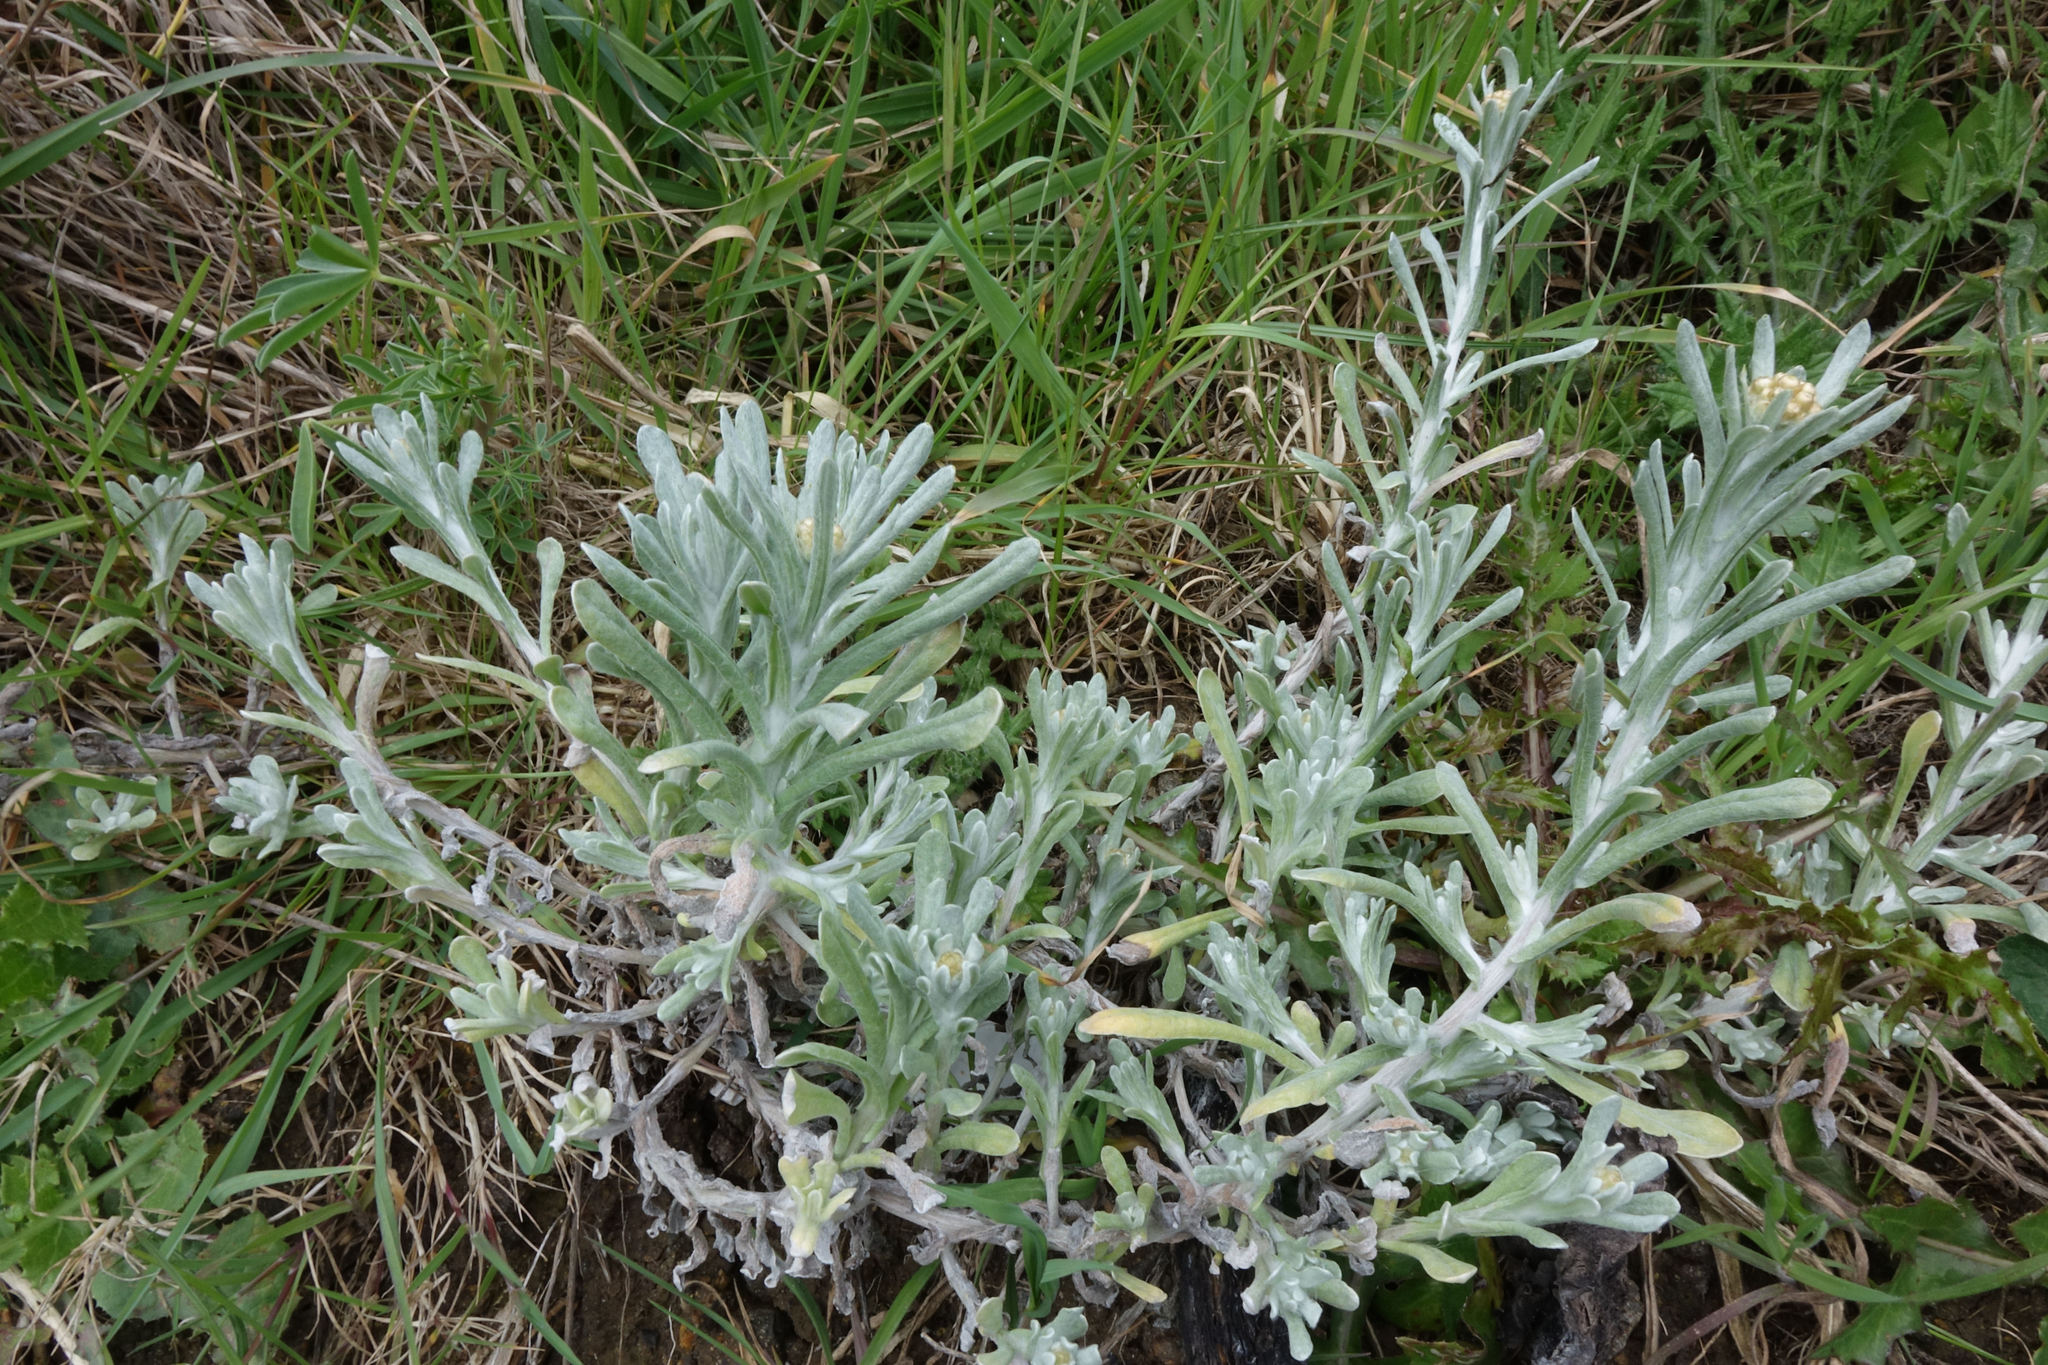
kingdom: Plantae
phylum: Tracheophyta
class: Magnoliopsida
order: Asterales
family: Asteraceae
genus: Helichrysum
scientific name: Helichrysum luteoalbum
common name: Daisy
